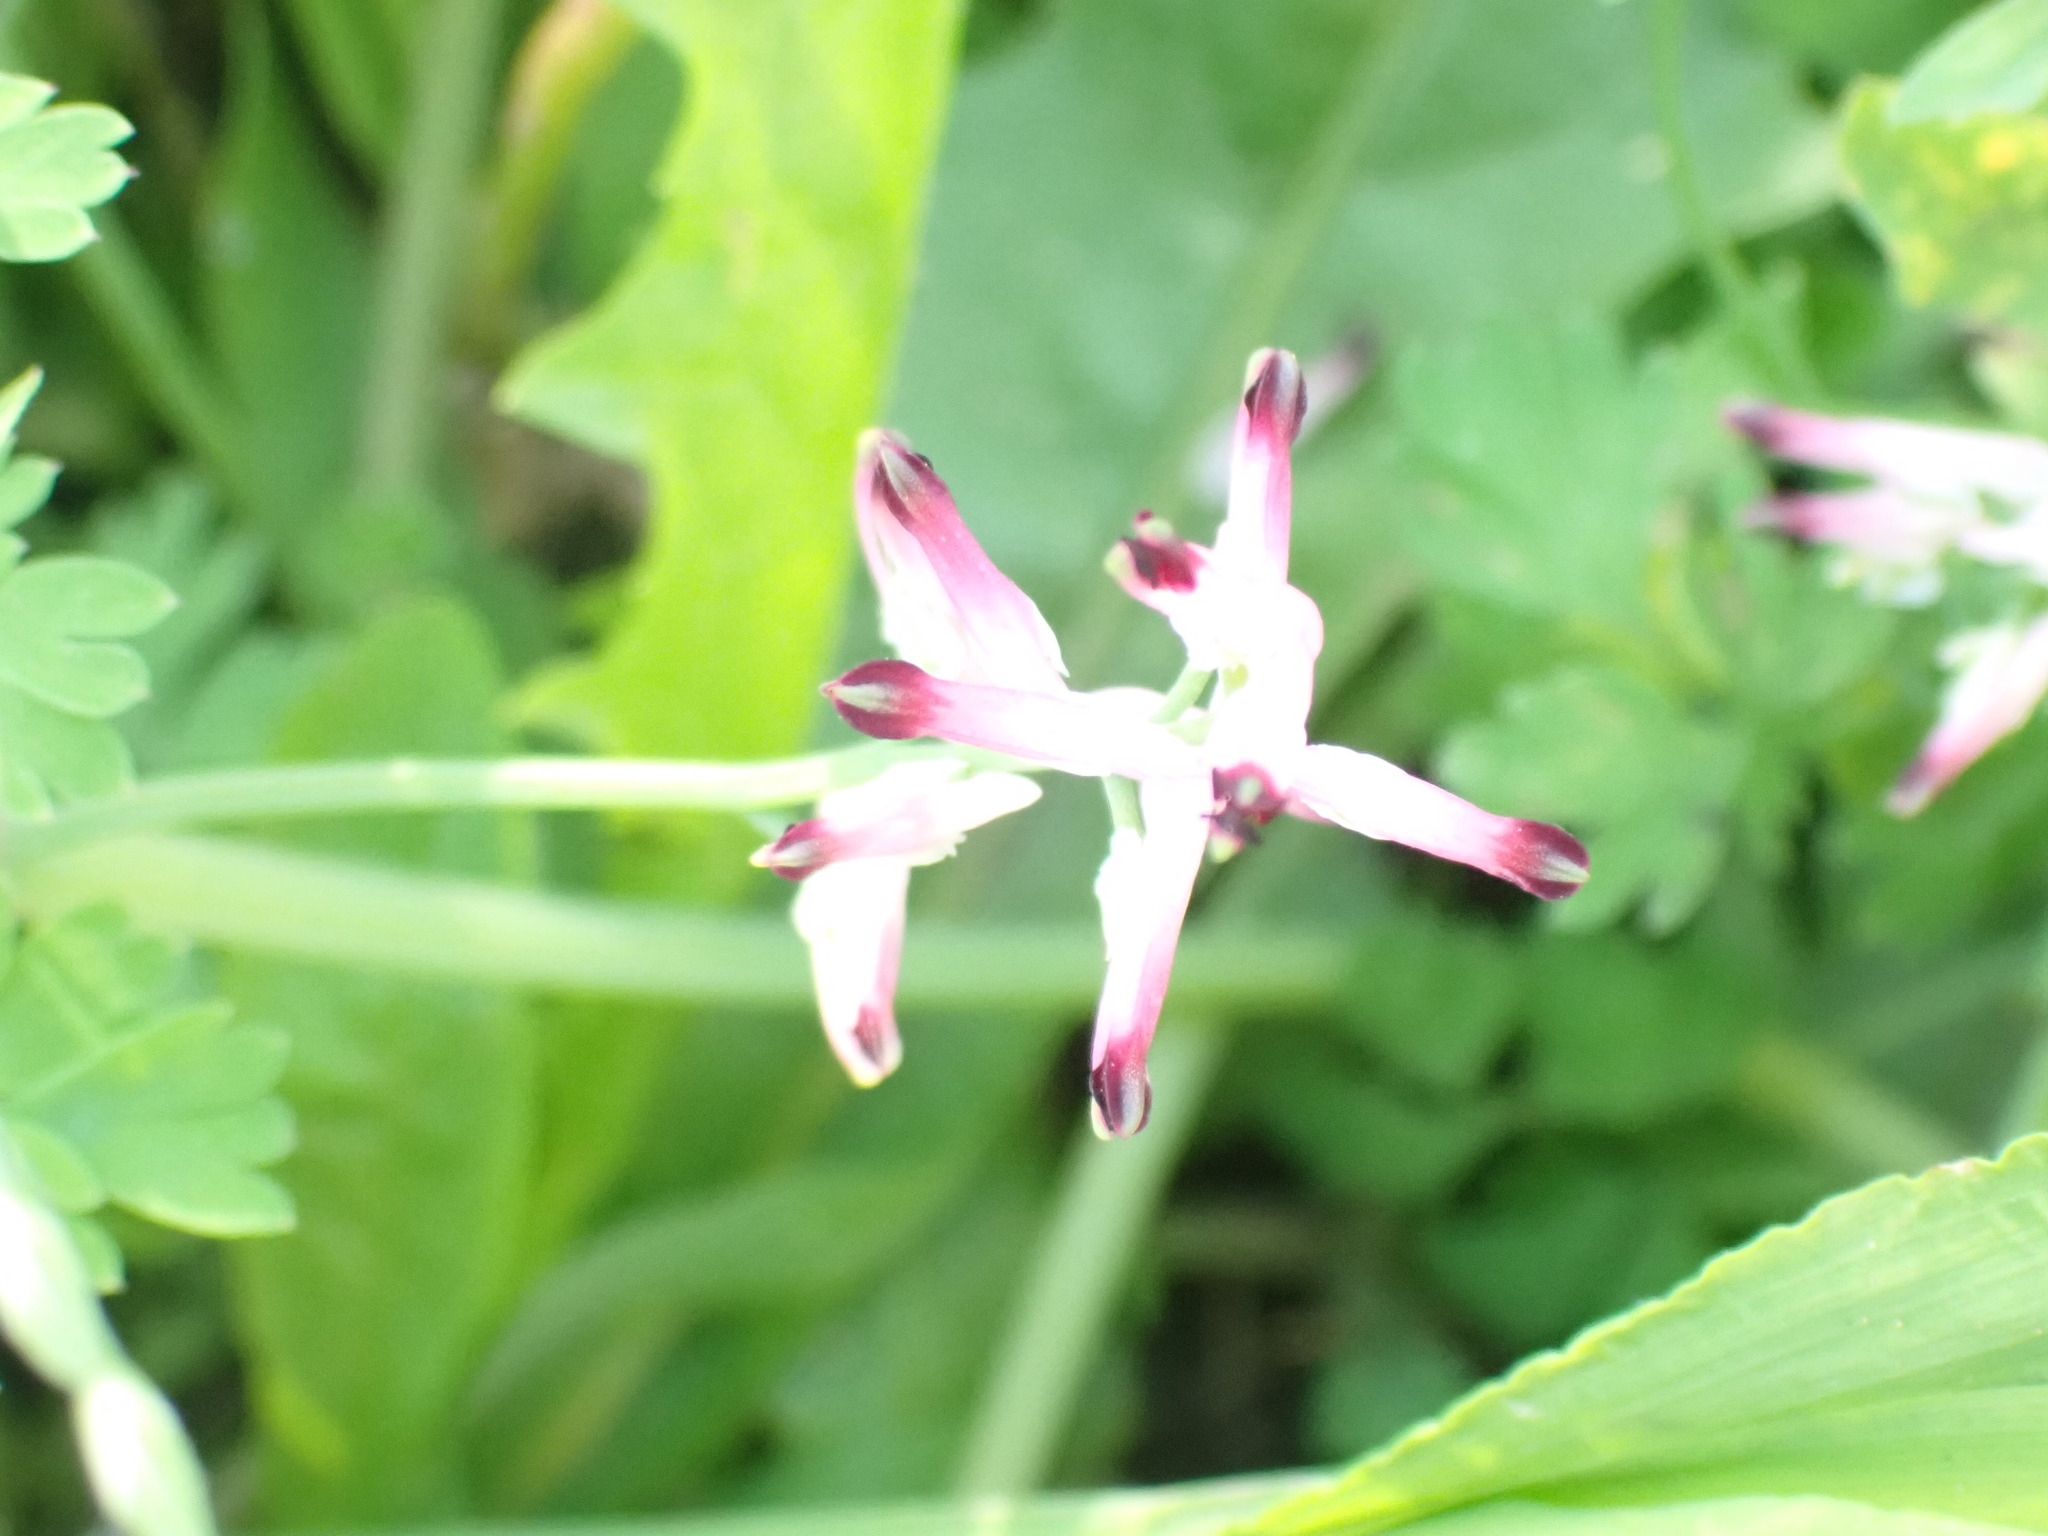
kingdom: Plantae
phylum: Tracheophyta
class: Magnoliopsida
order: Ranunculales
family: Papaveraceae
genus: Fumaria
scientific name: Fumaria muralis
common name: Common ramping-fumitory
